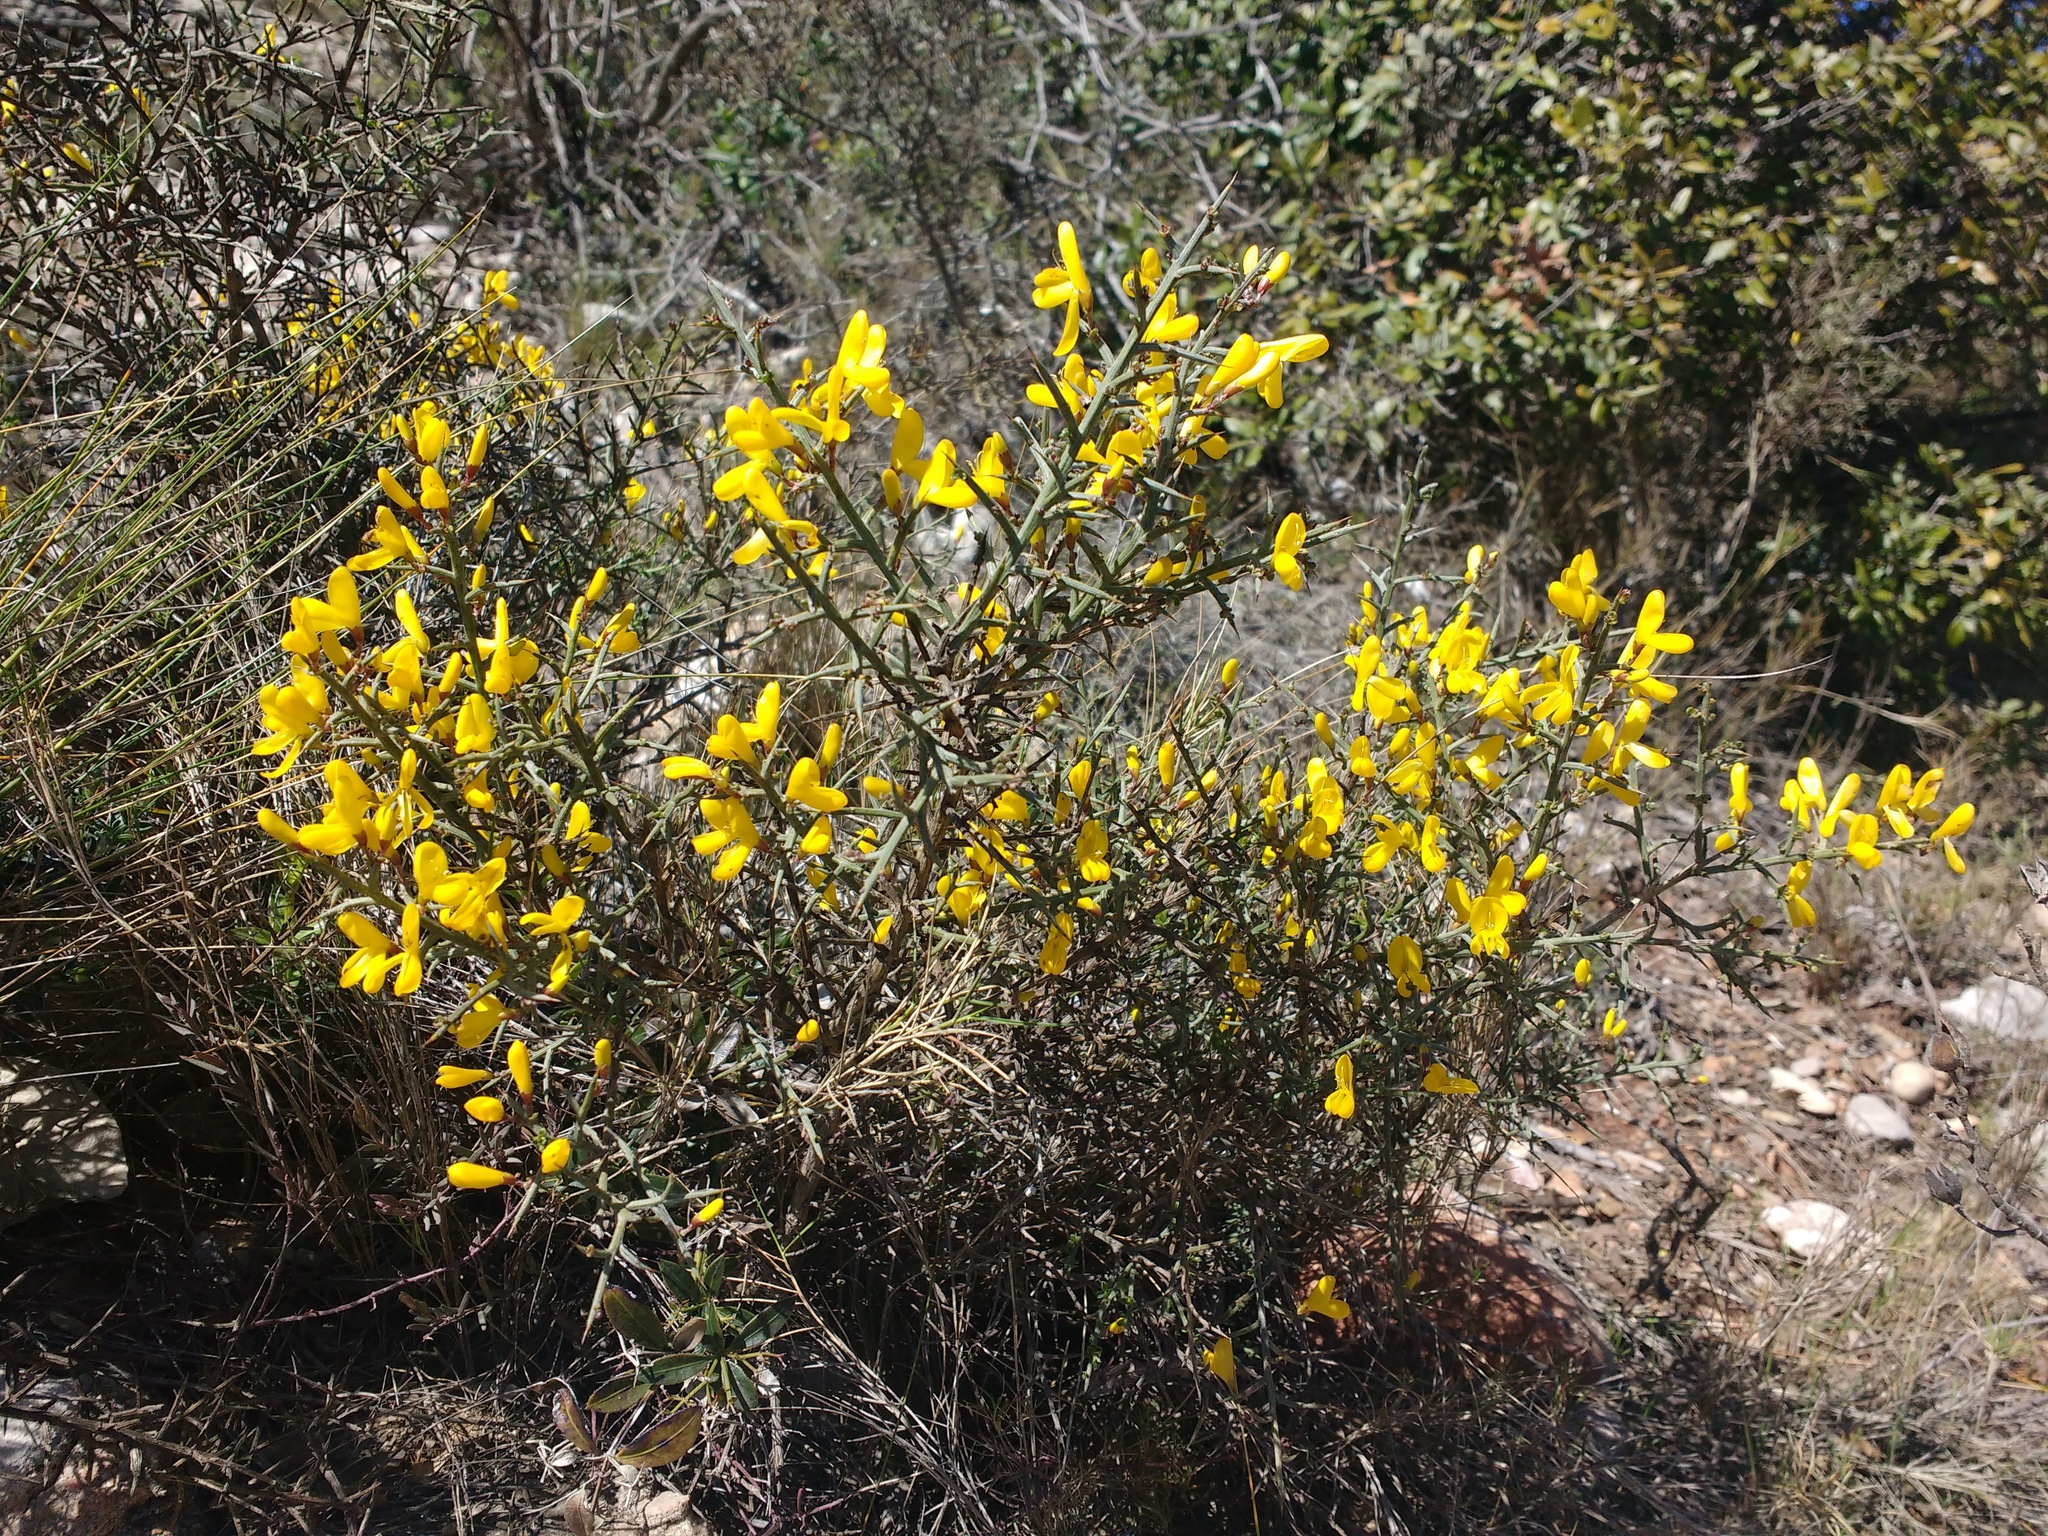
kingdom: Plantae
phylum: Tracheophyta
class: Magnoliopsida
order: Fabales
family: Fabaceae
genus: Genista
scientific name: Genista scorpius
